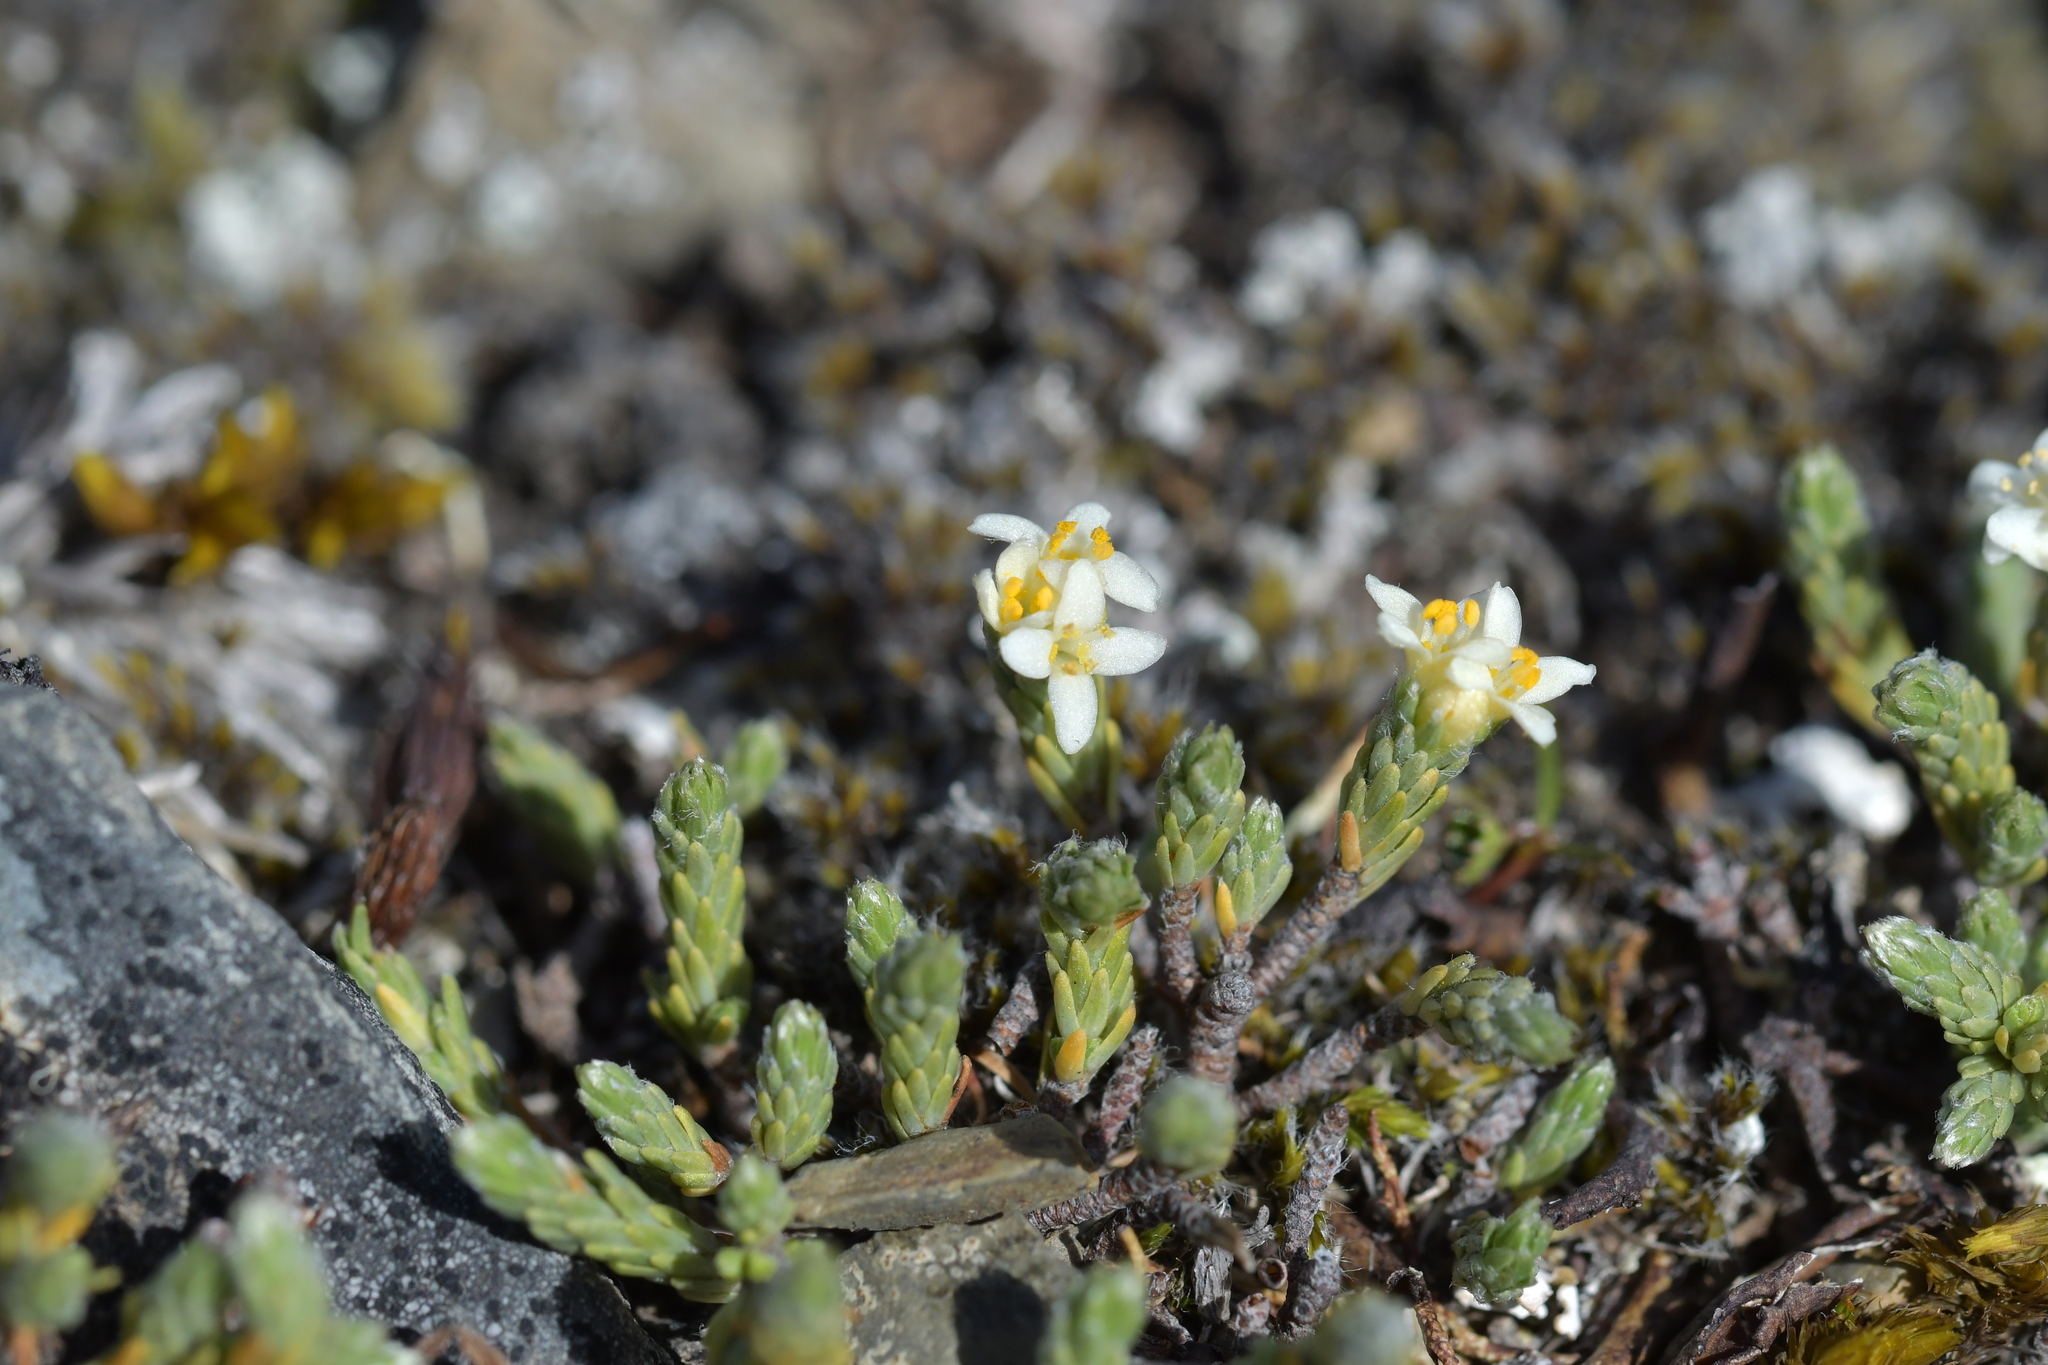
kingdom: Plantae
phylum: Tracheophyta
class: Magnoliopsida
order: Malvales
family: Thymelaeaceae
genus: Kelleria
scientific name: Kelleria dieffenbachii
